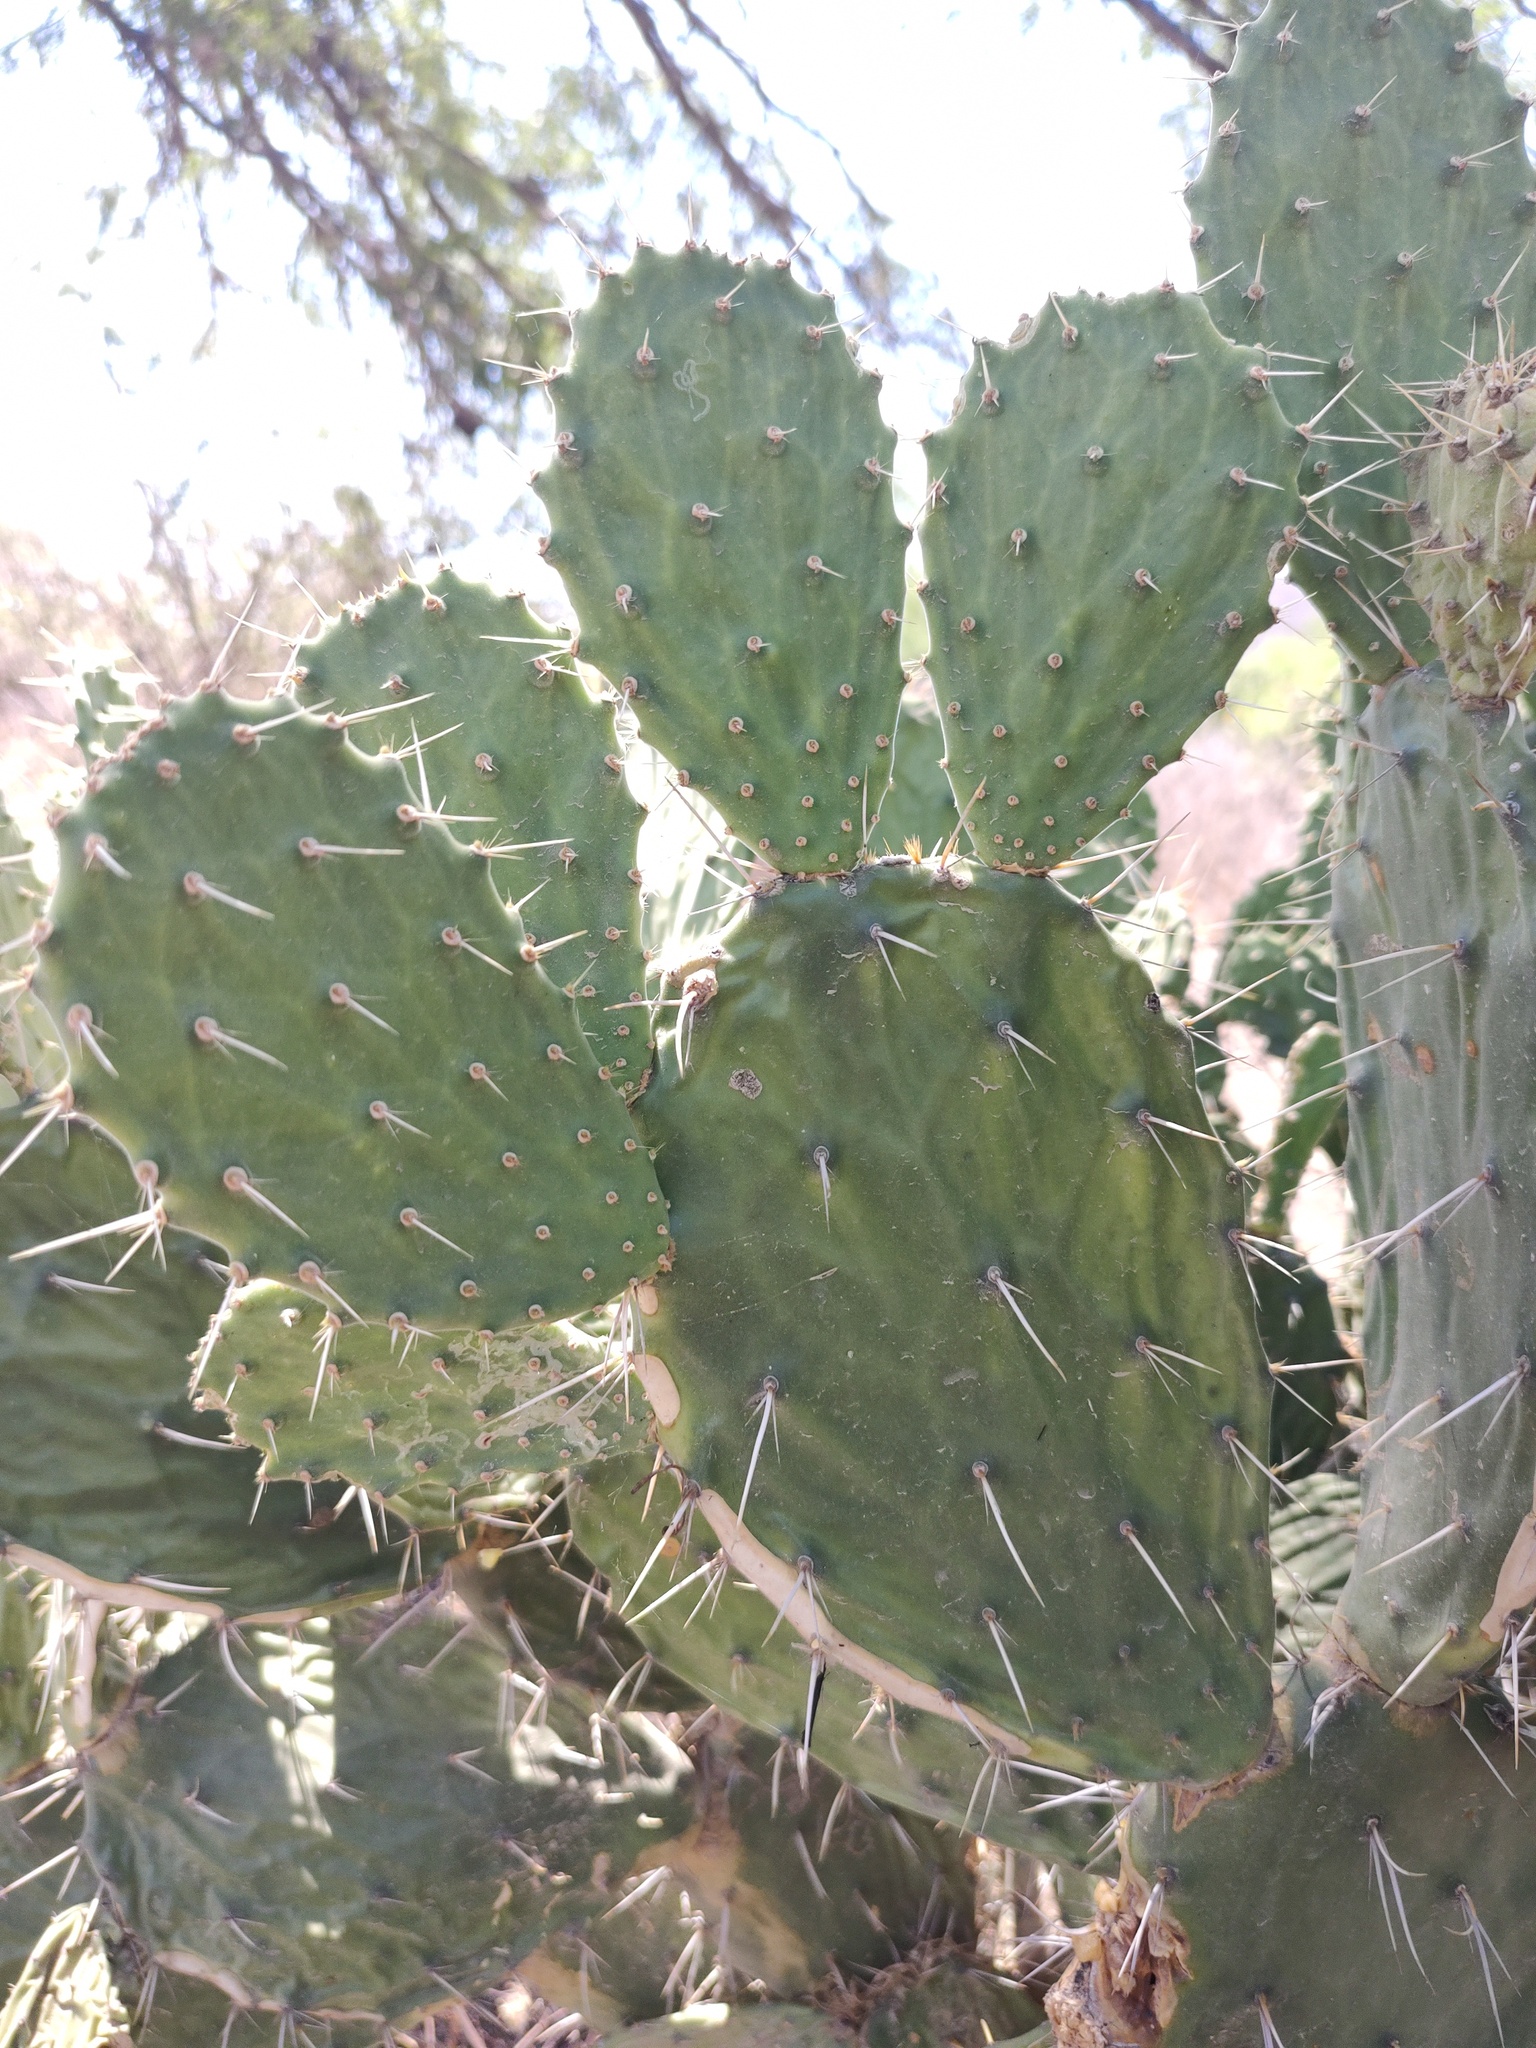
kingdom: Plantae
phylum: Tracheophyta
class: Magnoliopsida
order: Caryophyllales
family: Cactaceae
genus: Opuntia
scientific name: Opuntia tomentosa
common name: Woollyjoint pricklypear
